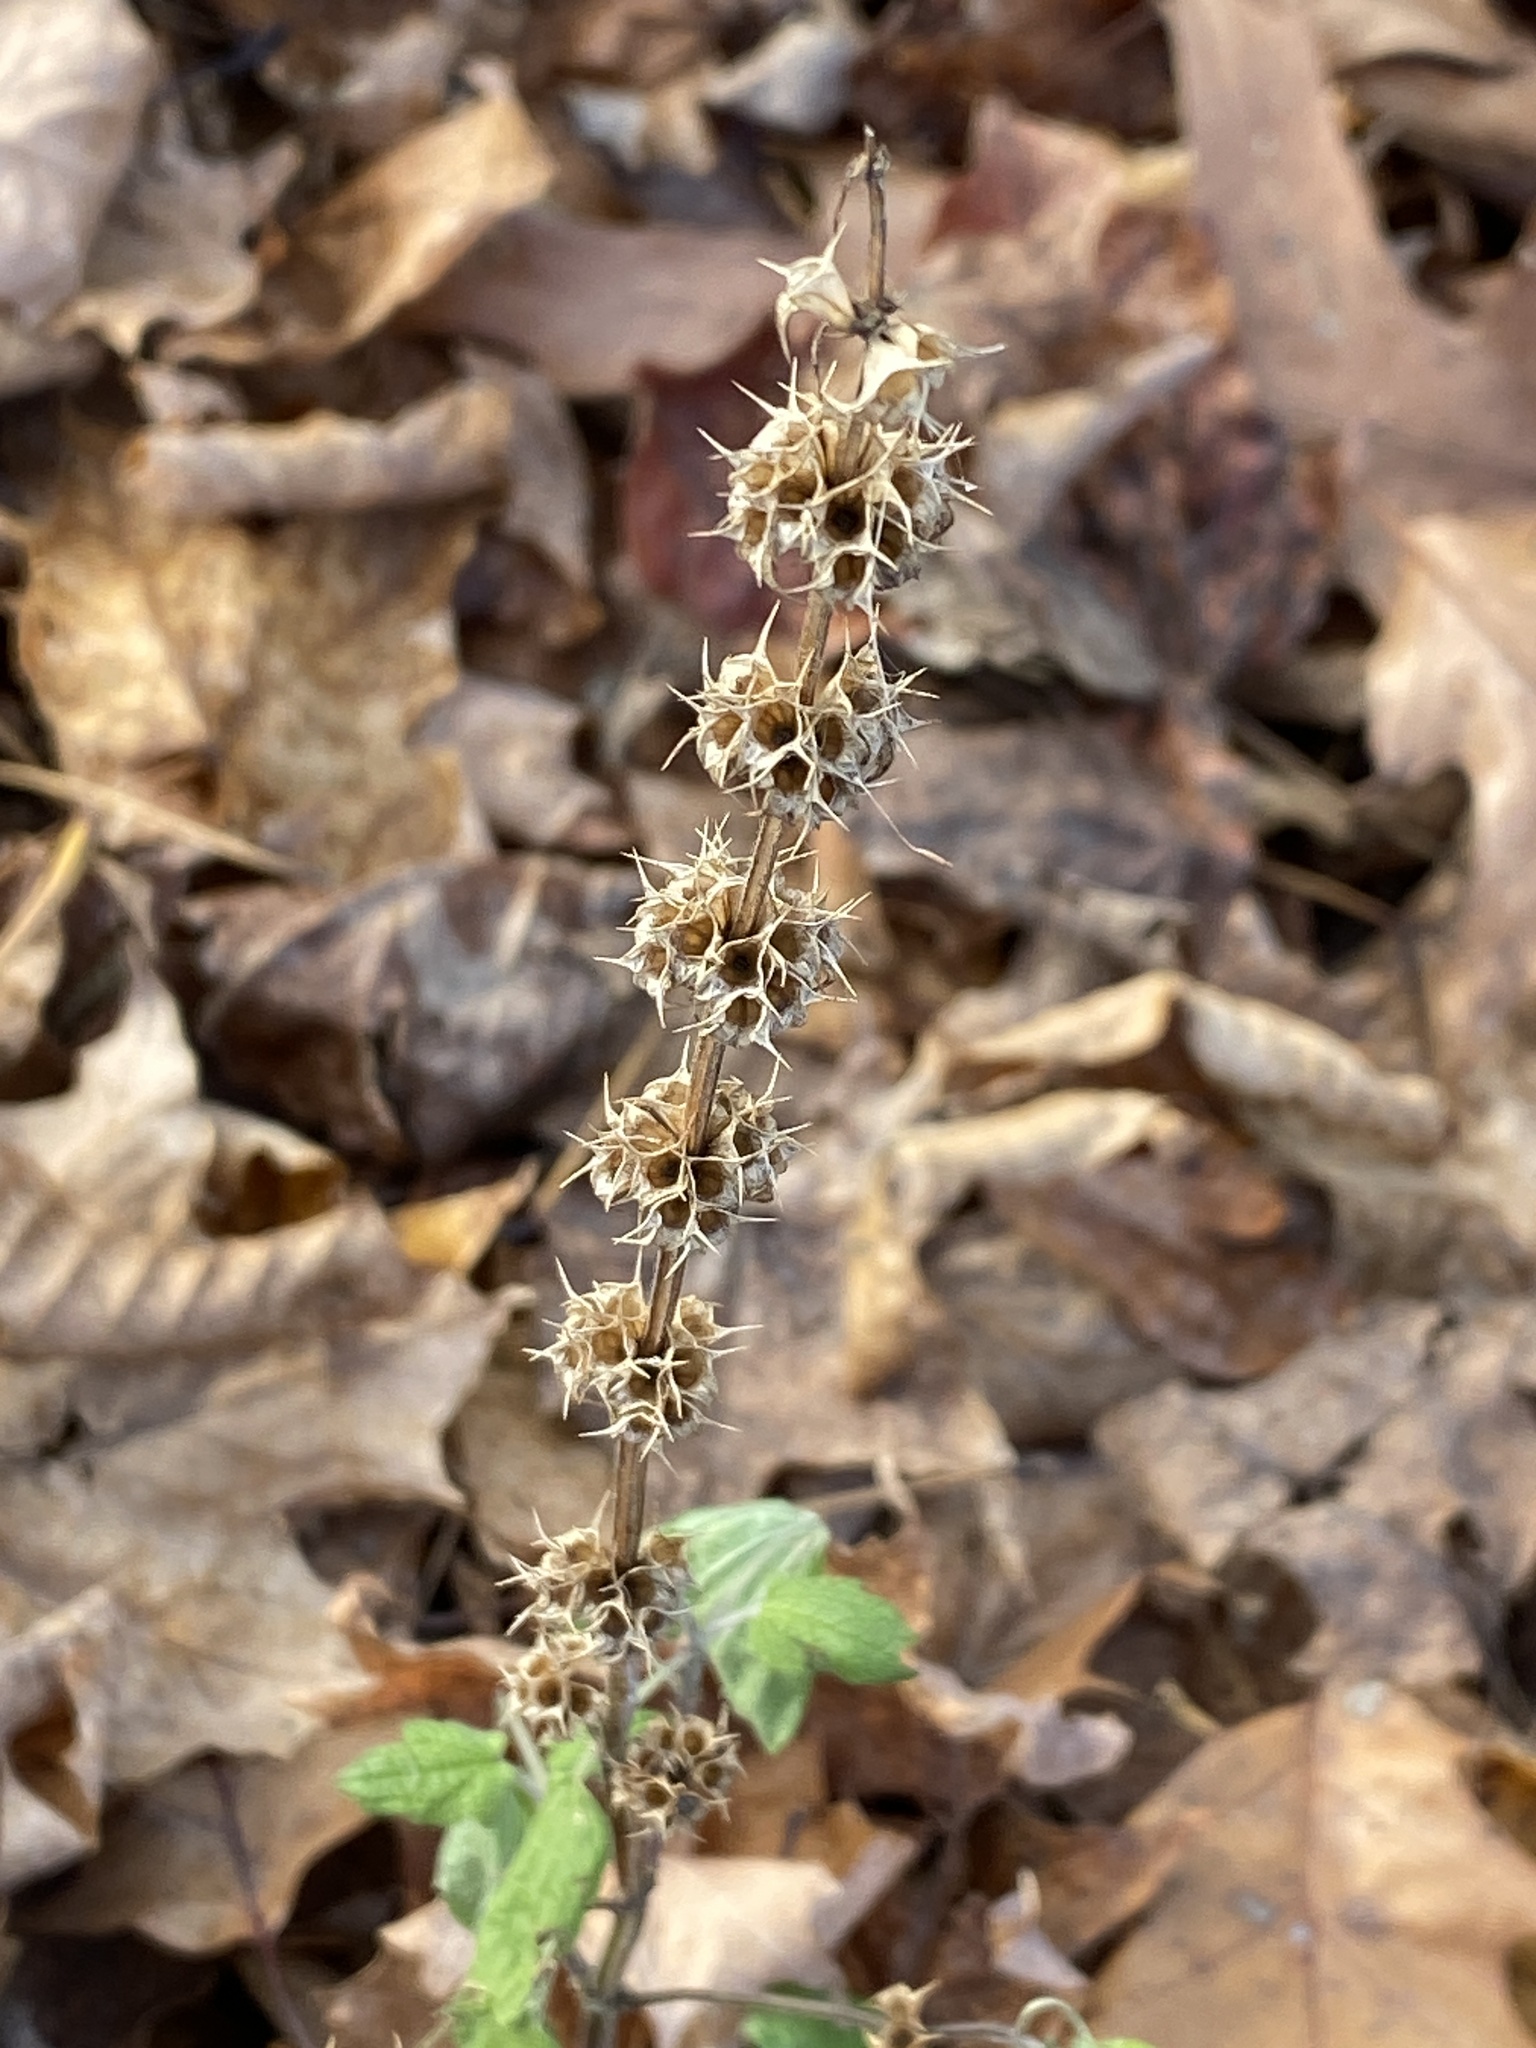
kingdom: Plantae
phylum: Tracheophyta
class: Magnoliopsida
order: Lamiales
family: Lamiaceae
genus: Leonurus
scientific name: Leonurus cardiaca
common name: Motherwort
